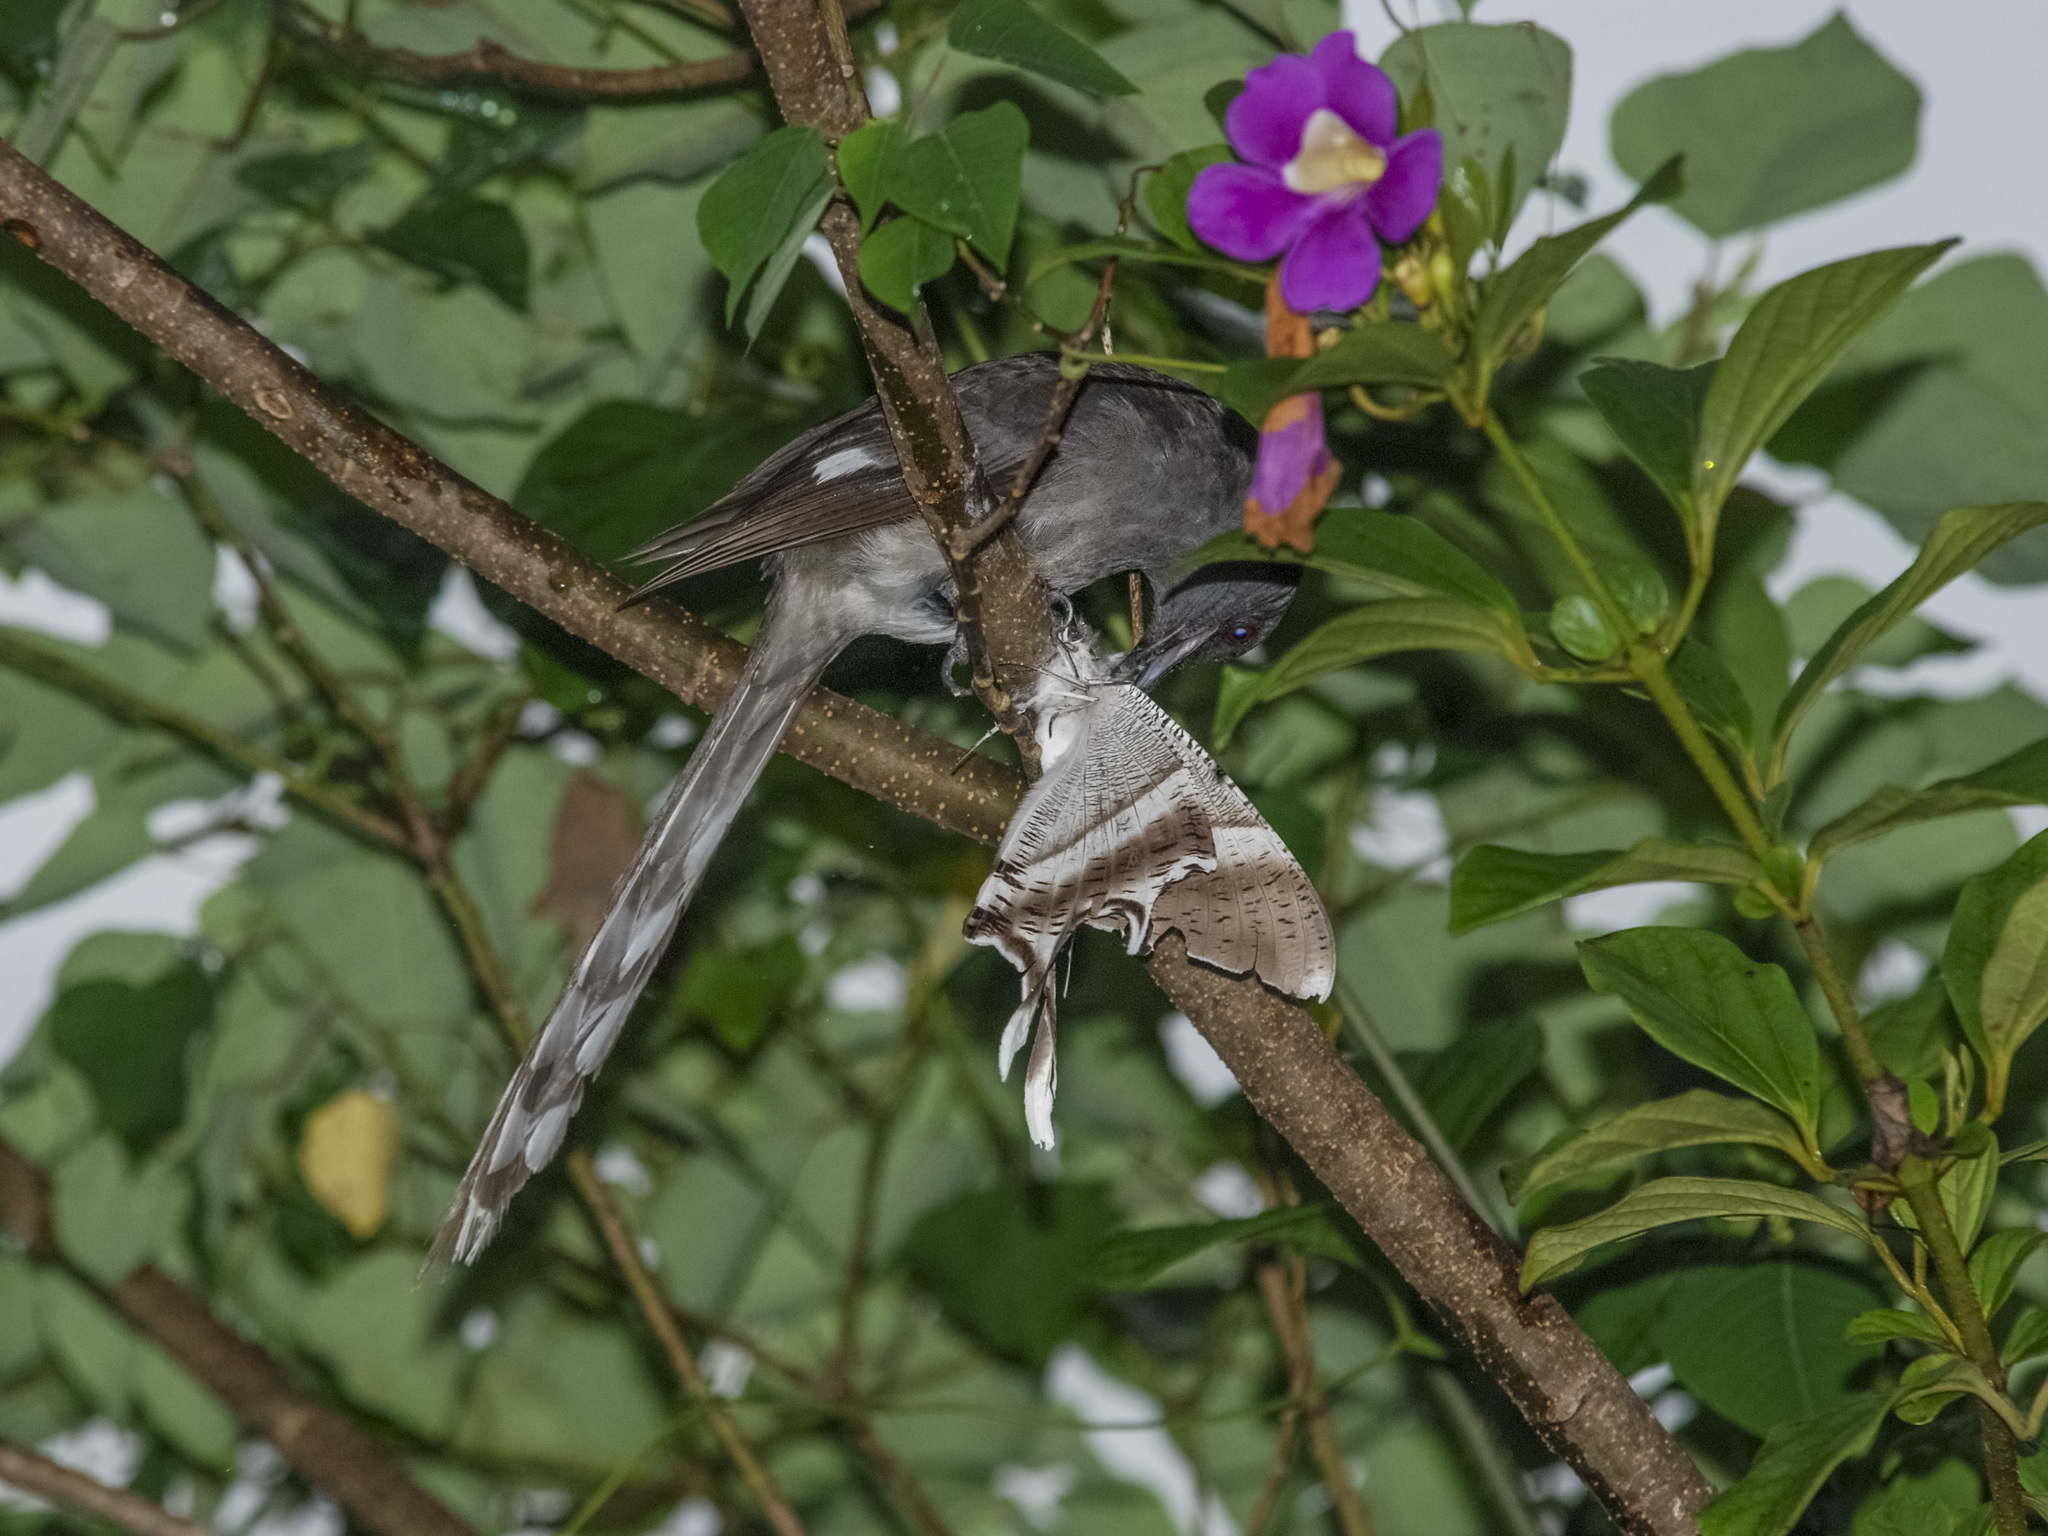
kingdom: Animalia
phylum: Chordata
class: Aves
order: Passeriformes
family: Leiothrichidae
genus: Heterophasia
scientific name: Heterophasia picaoides
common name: Long-tailed sibia
